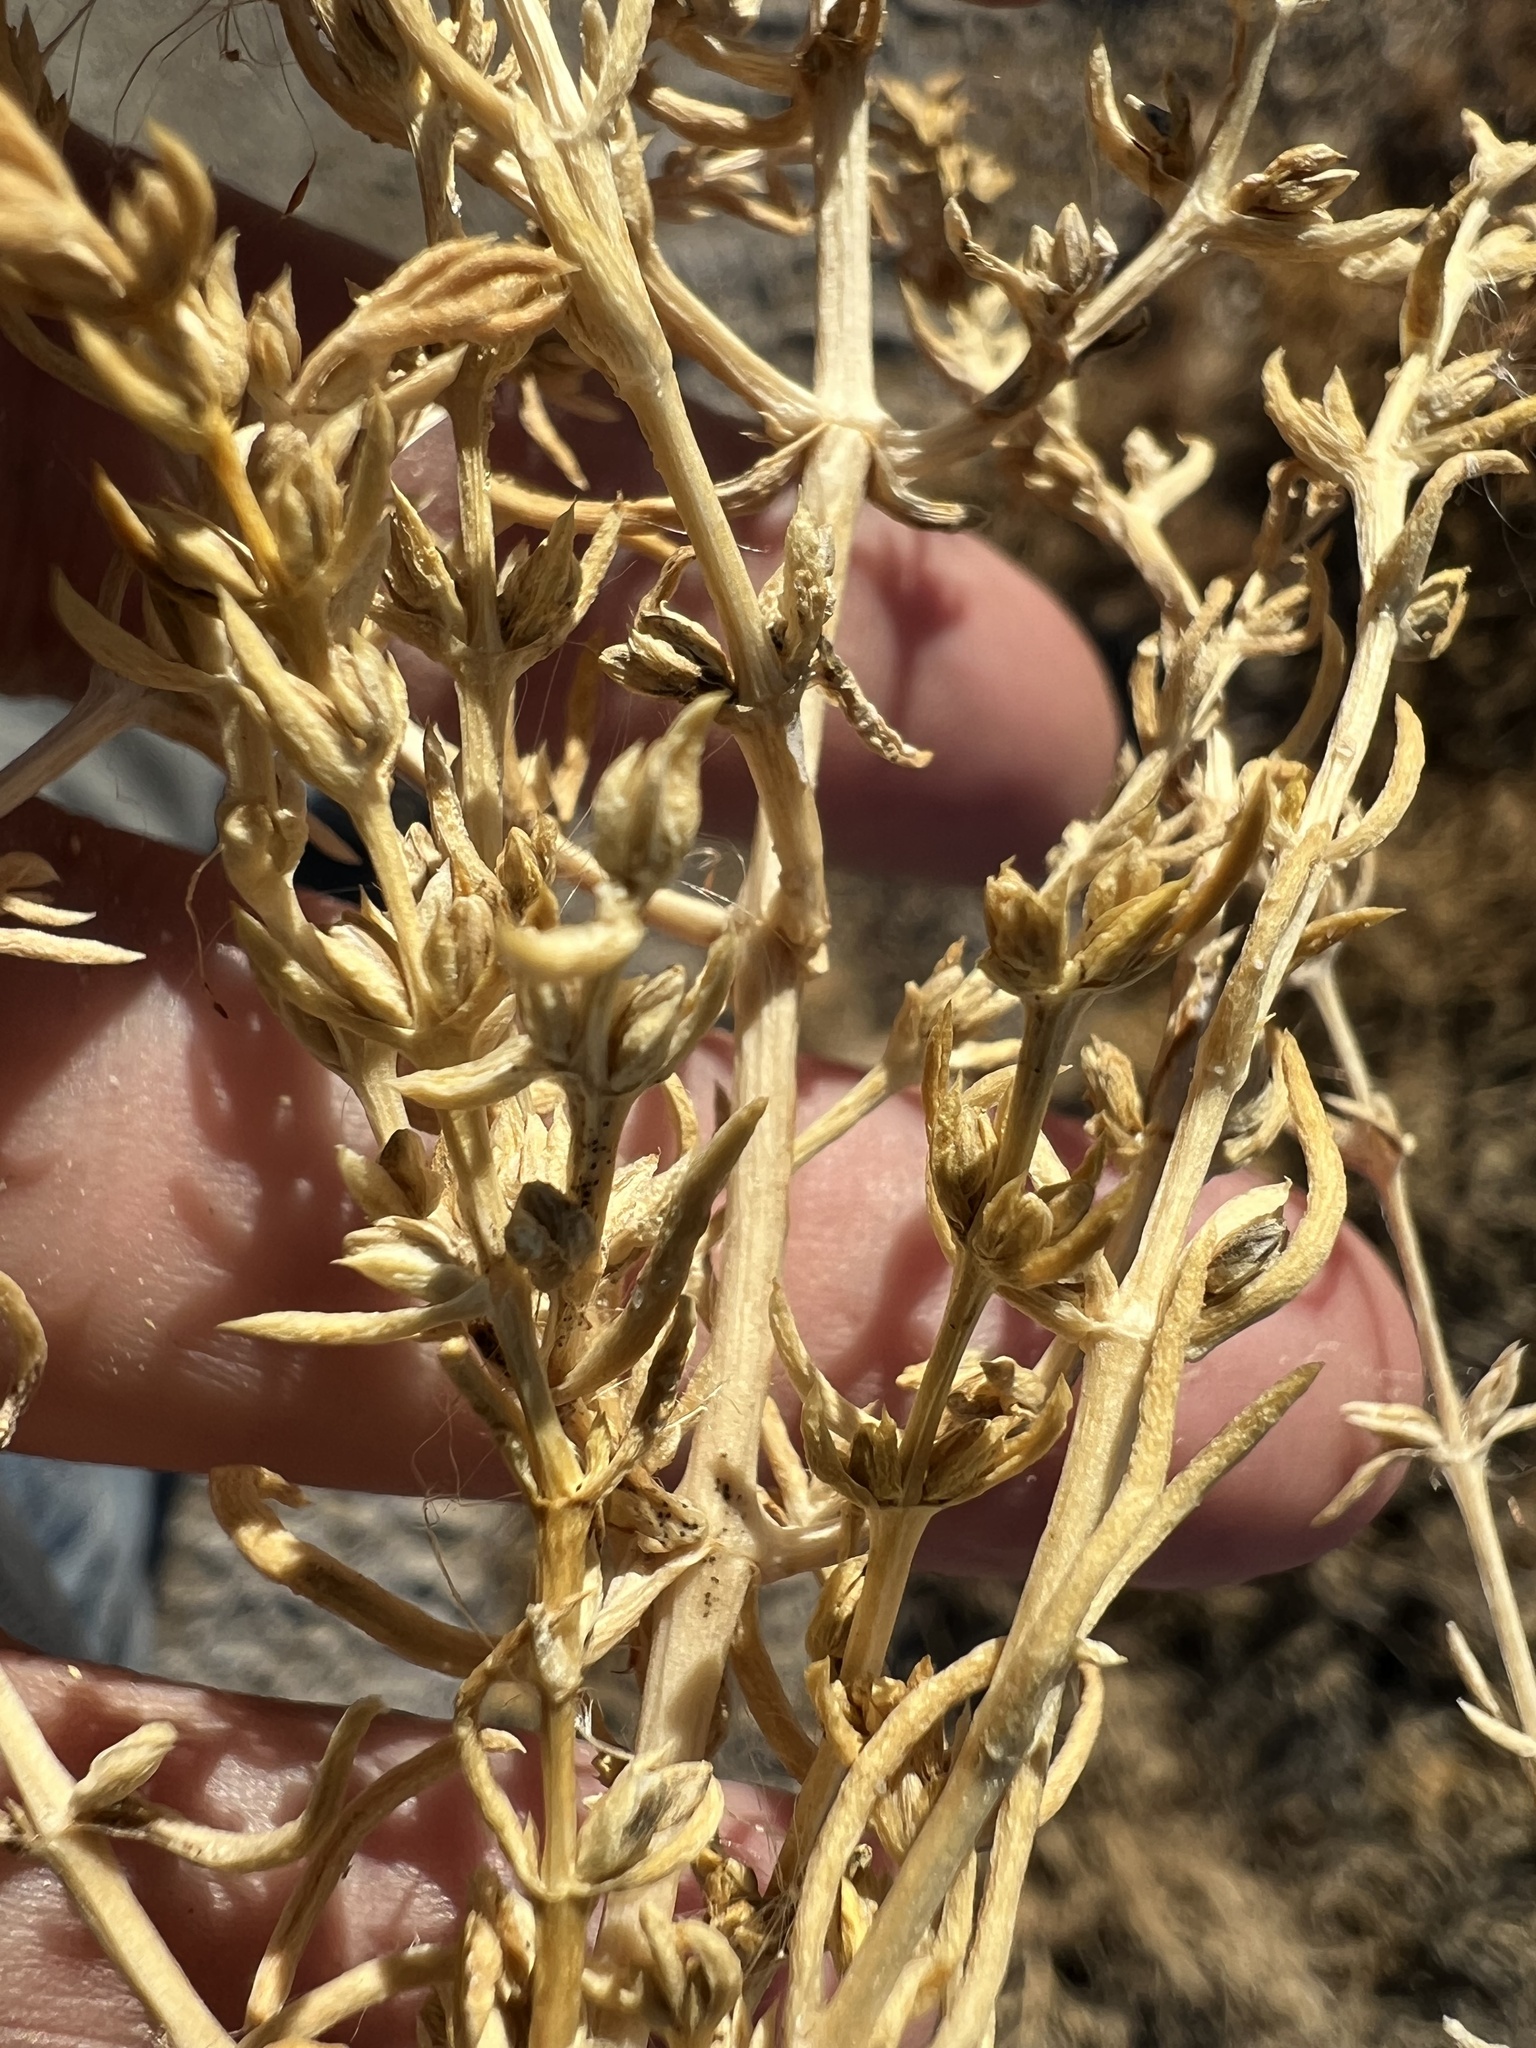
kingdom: Plantae
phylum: Tracheophyta
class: Magnoliopsida
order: Caryophyllales
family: Amaranthaceae
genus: Nitrophila
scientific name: Nitrophila occidentalis
